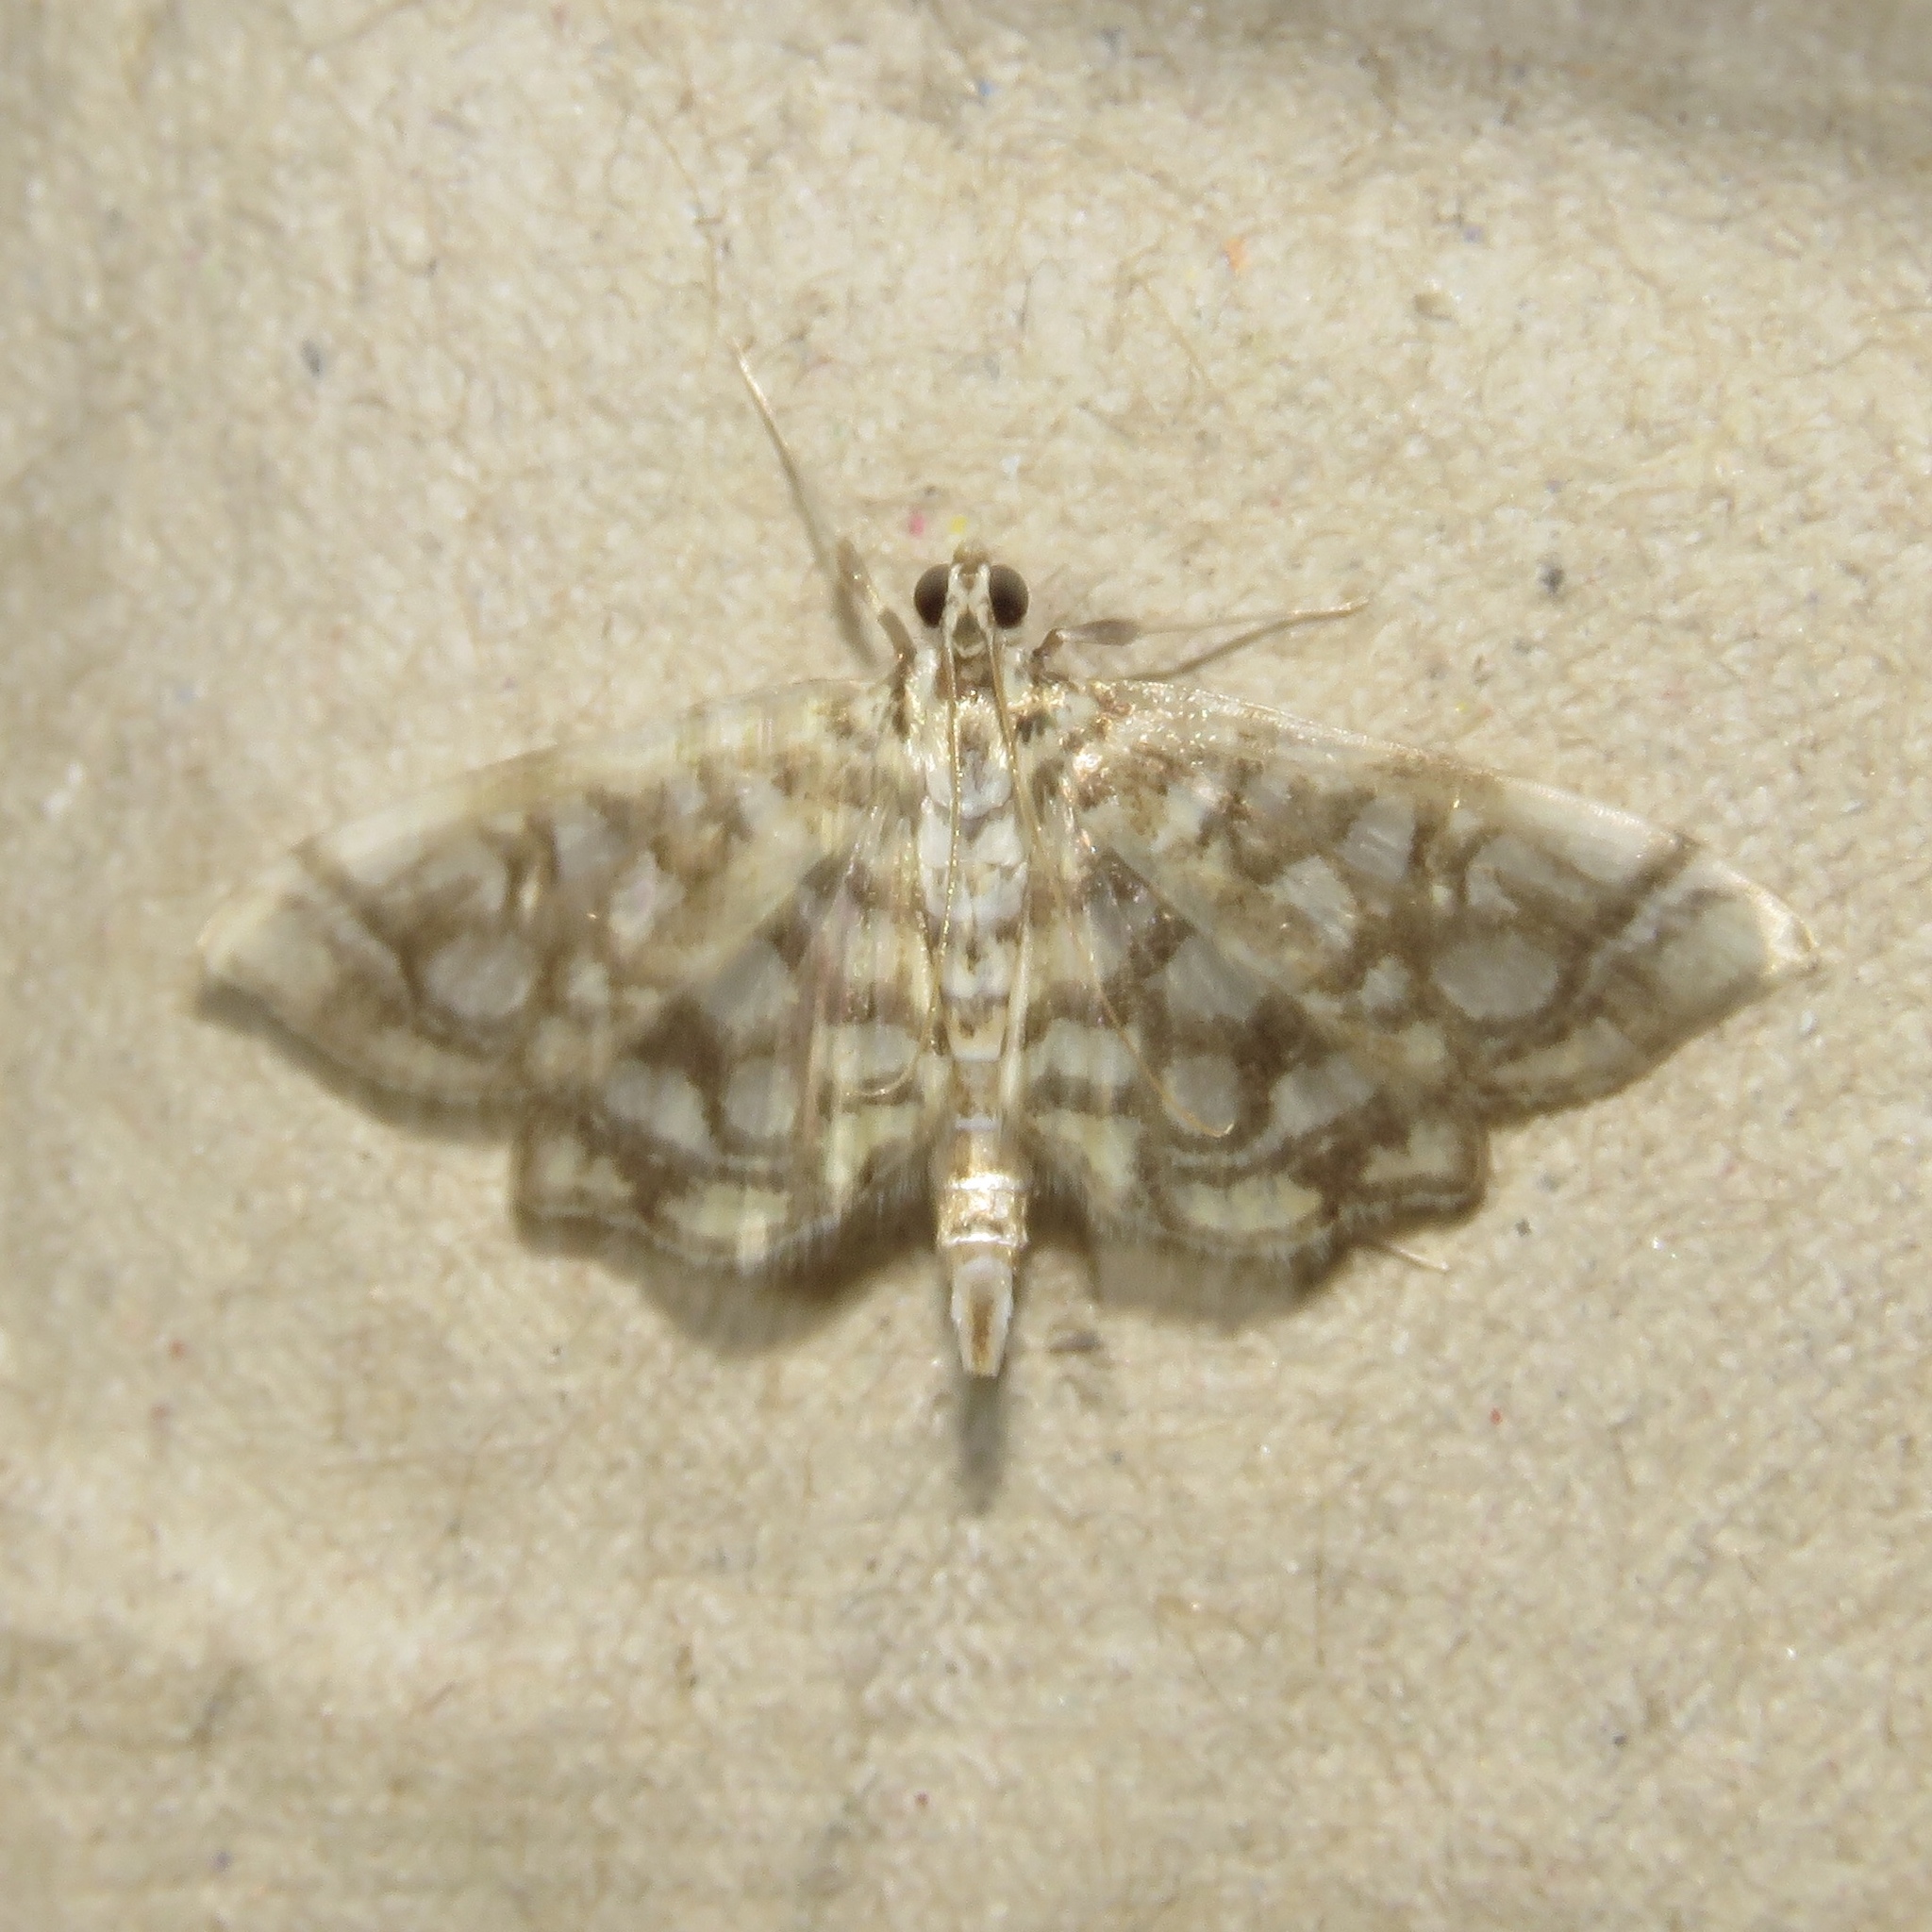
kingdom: Animalia
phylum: Arthropoda
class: Insecta
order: Lepidoptera
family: Crambidae
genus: Lygropia
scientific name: Lygropia rivulalis
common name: Bog lygropia moth
